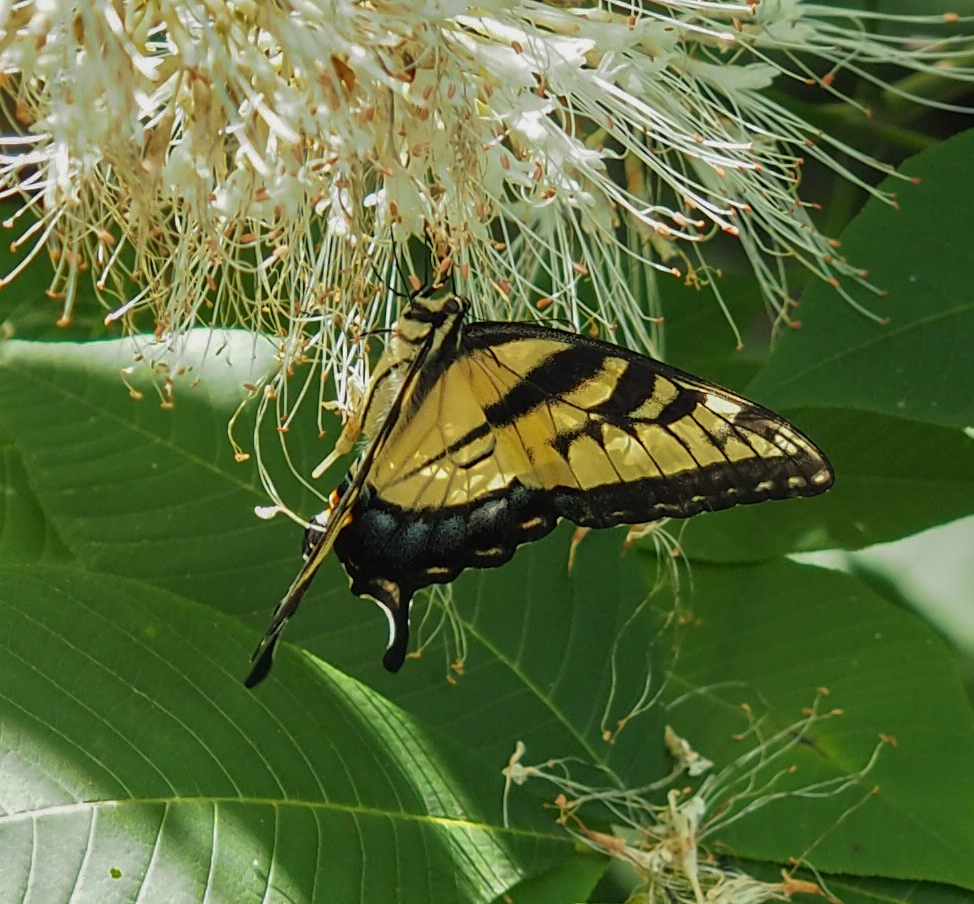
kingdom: Animalia
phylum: Arthropoda
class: Insecta
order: Lepidoptera
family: Papilionidae
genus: Papilio
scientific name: Papilio glaucus
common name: Tiger swallowtail
